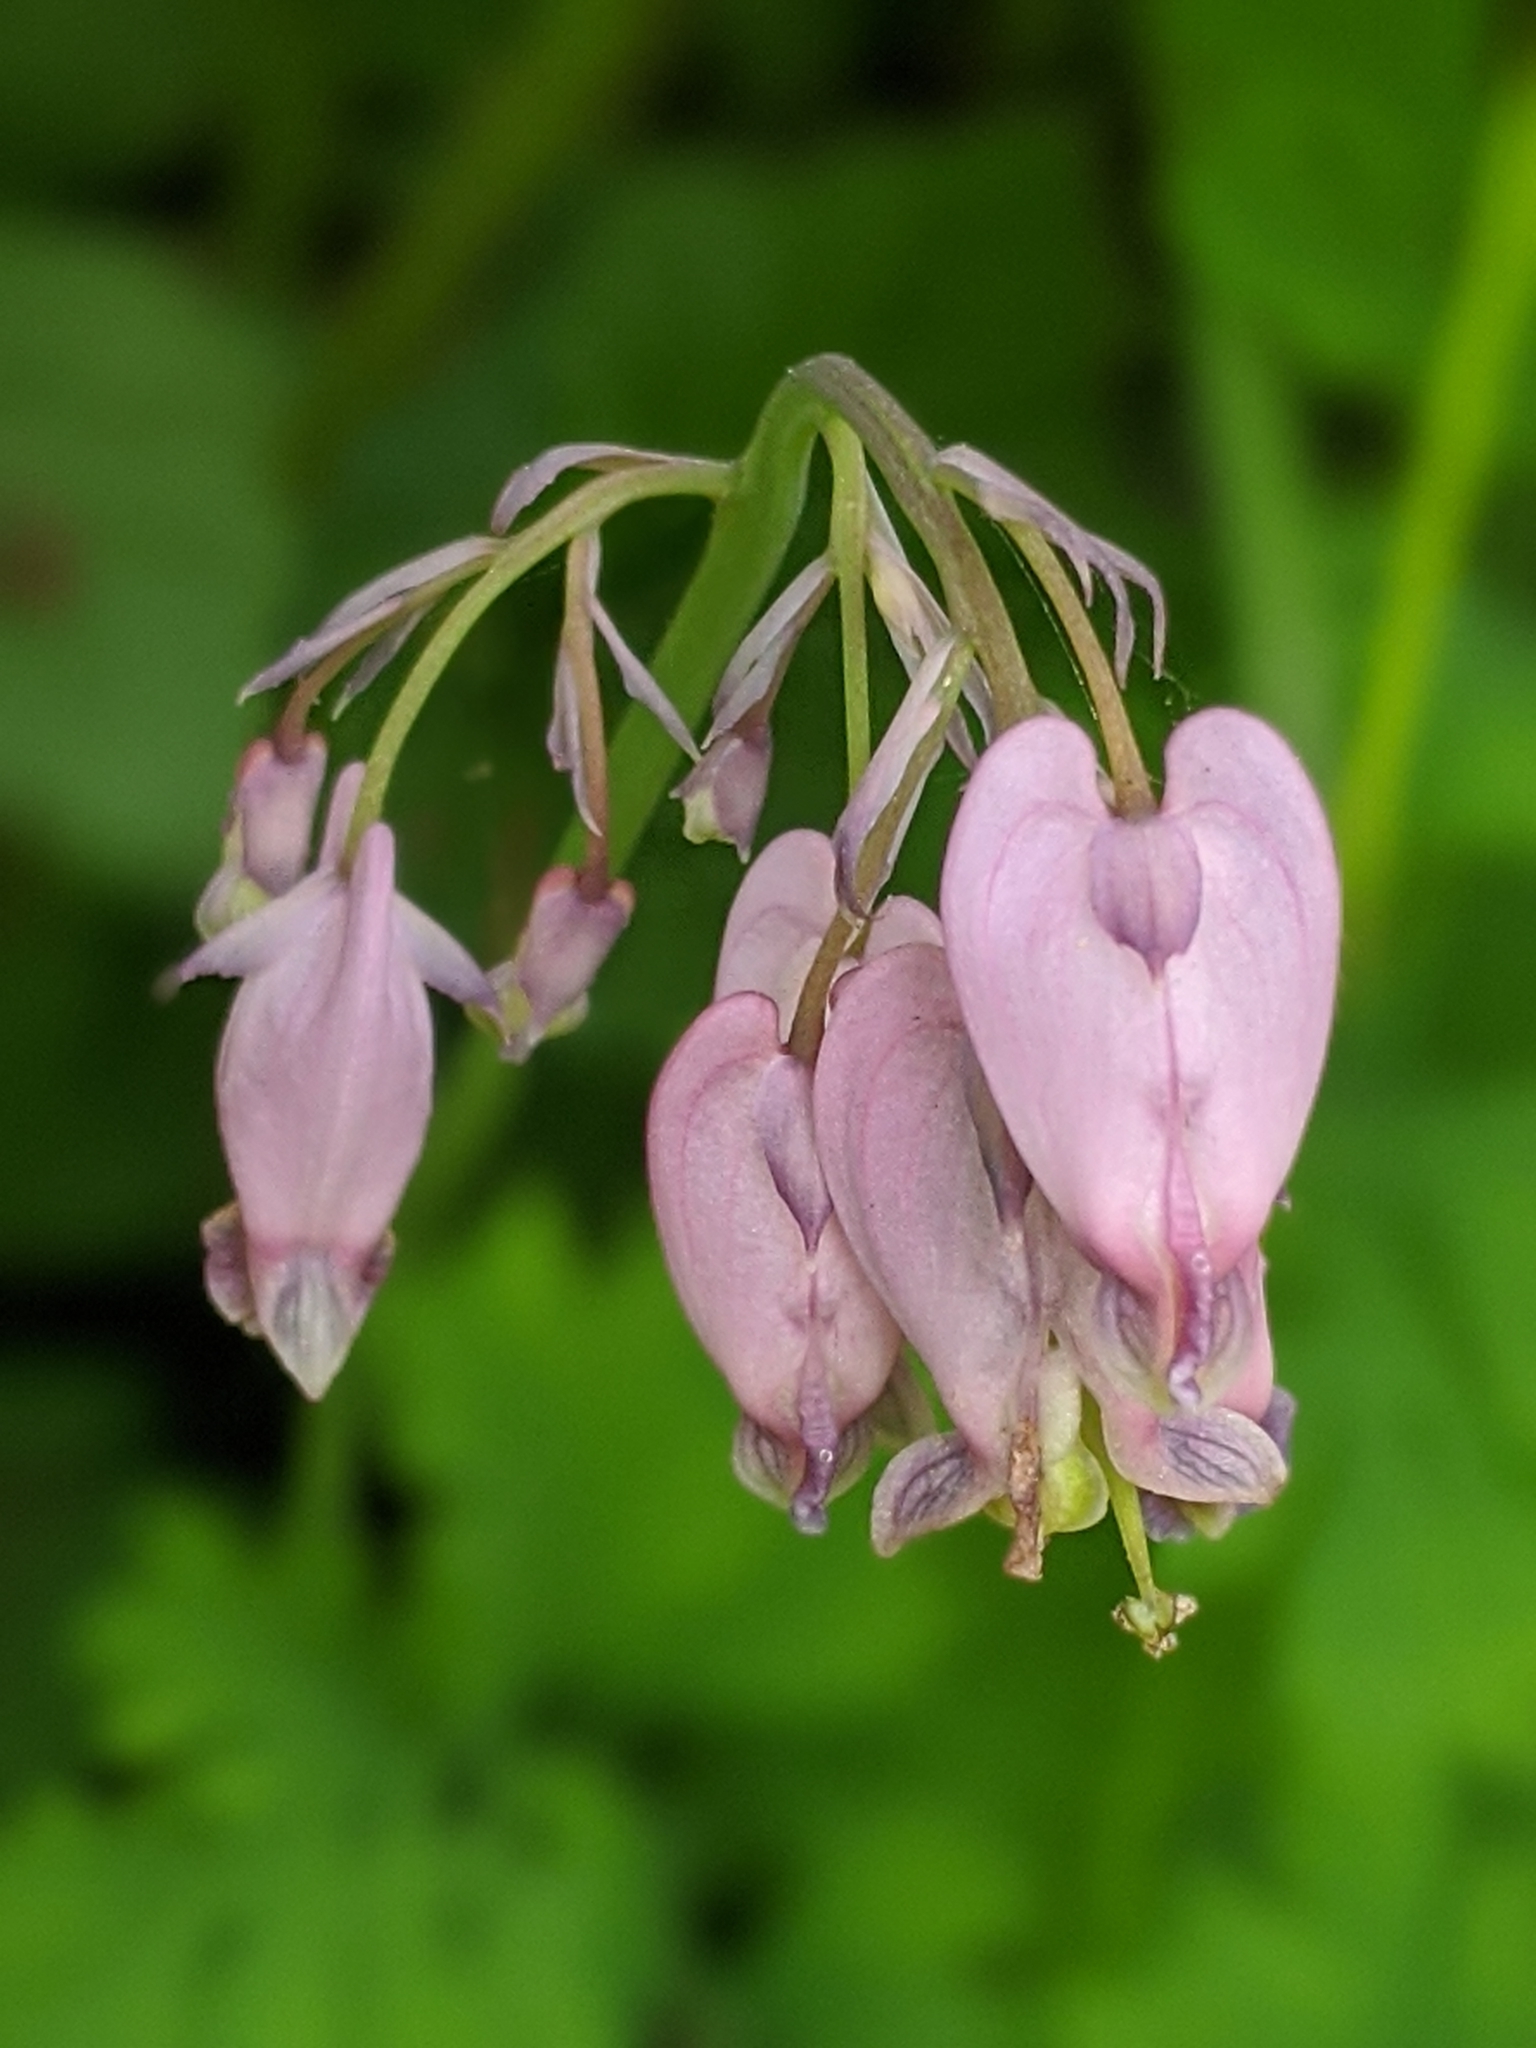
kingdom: Plantae
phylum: Tracheophyta
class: Magnoliopsida
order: Ranunculales
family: Papaveraceae
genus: Dicentra
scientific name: Dicentra formosa
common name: Bleeding-heart
